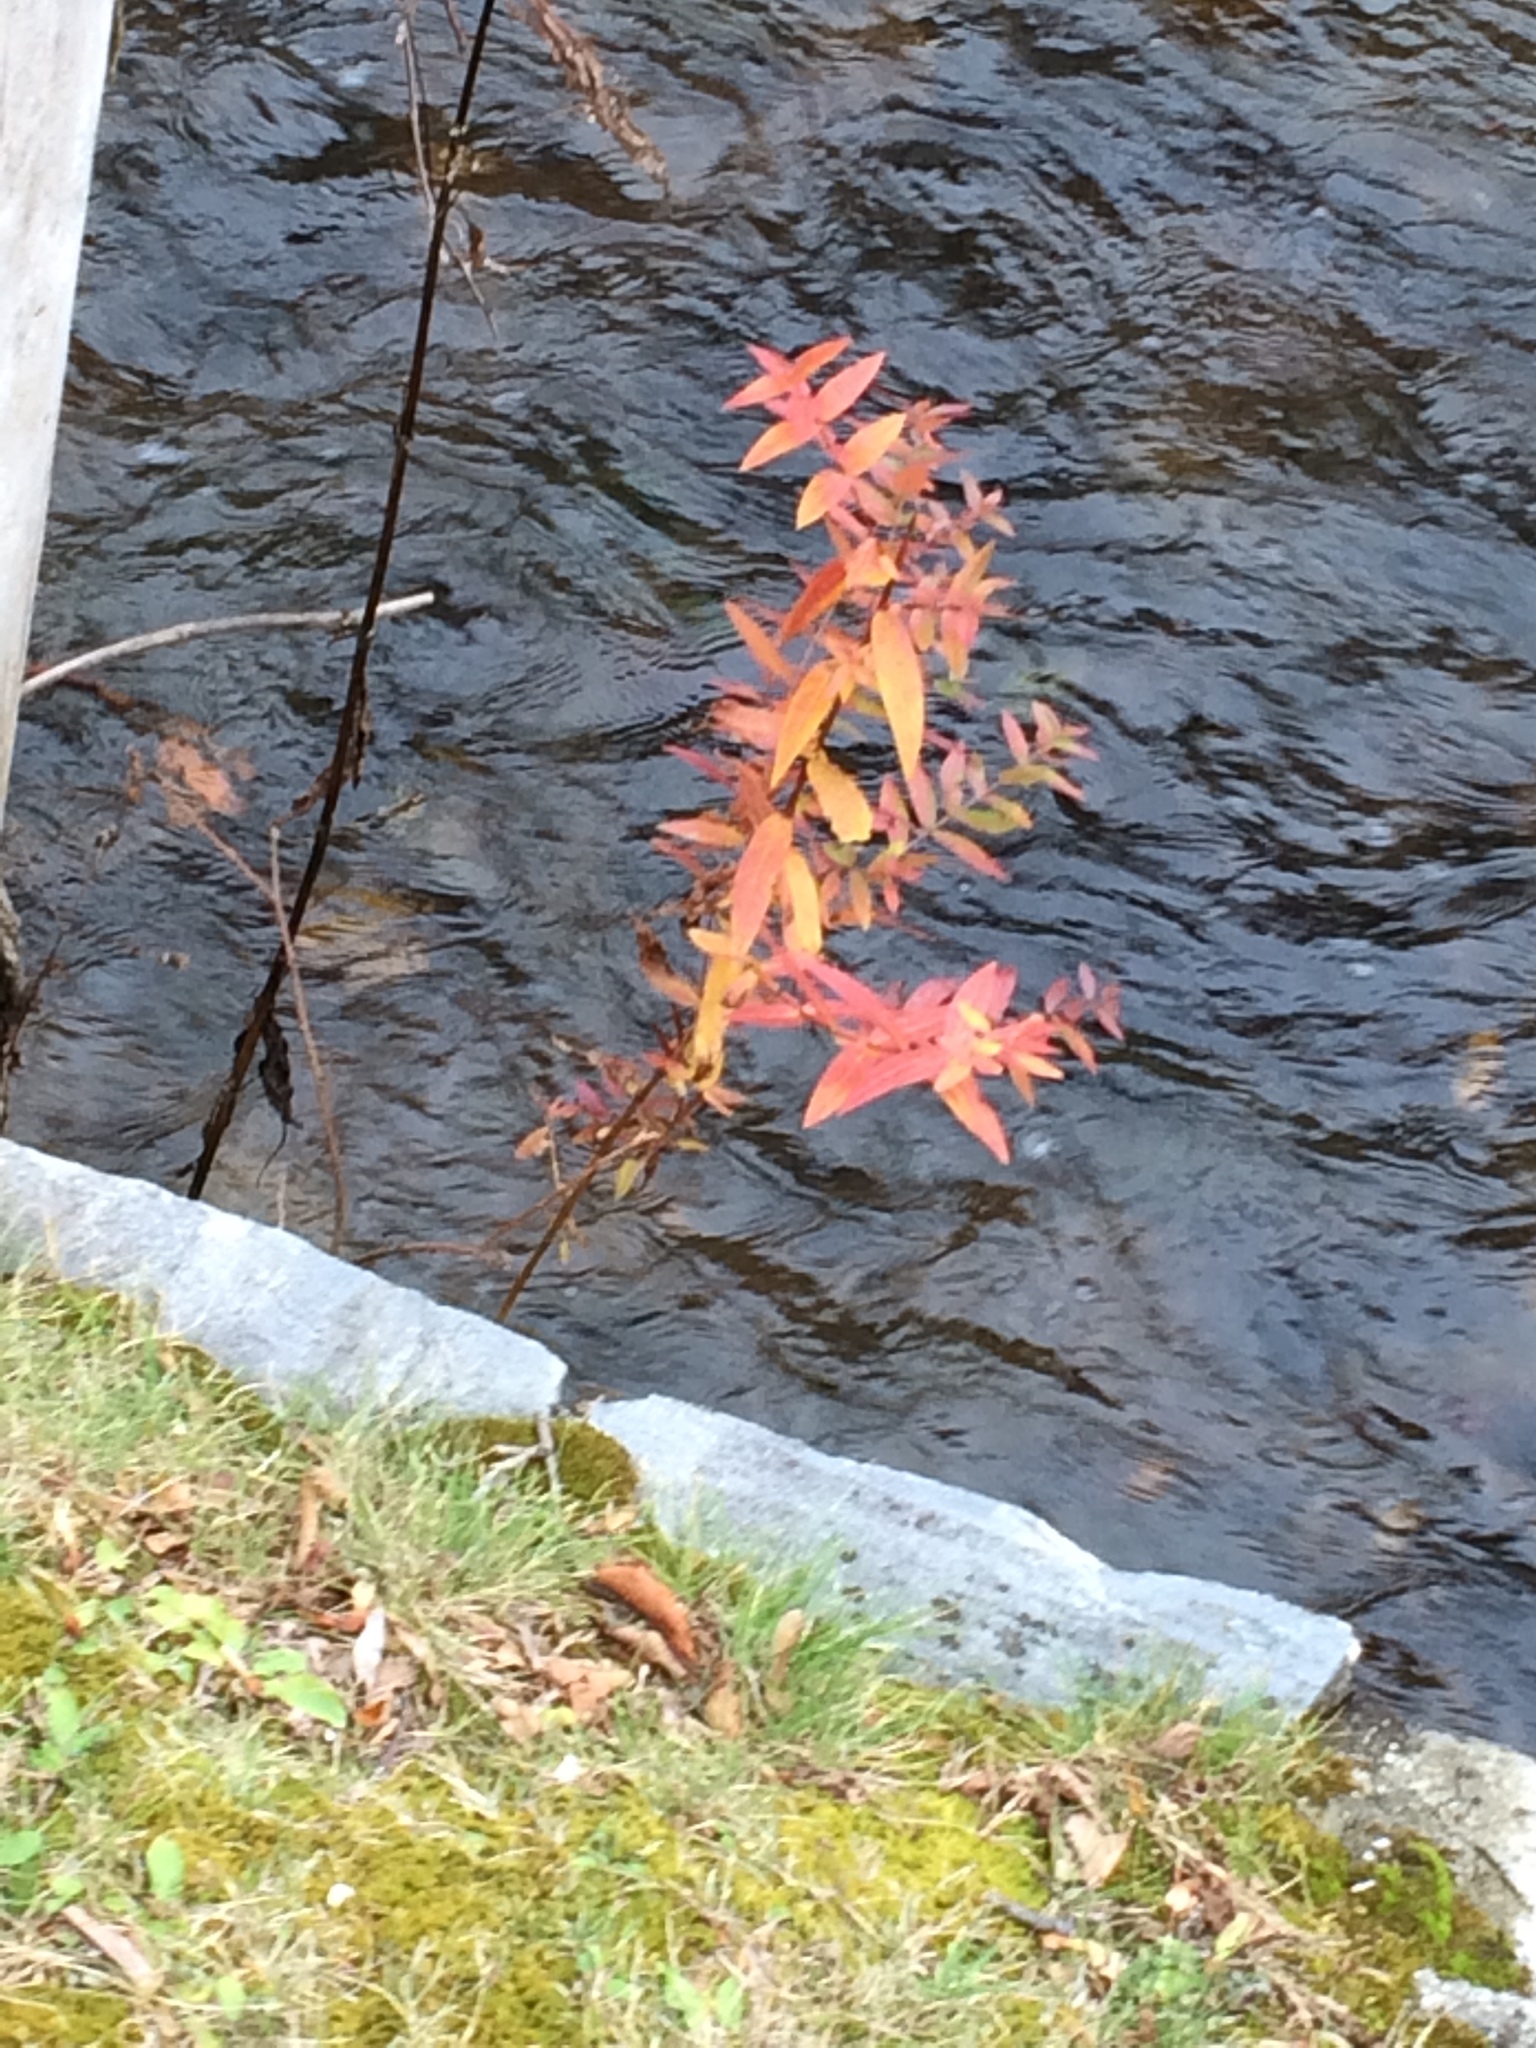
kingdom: Plantae
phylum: Tracheophyta
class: Magnoliopsida
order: Myrtales
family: Lythraceae
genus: Lythrum
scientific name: Lythrum salicaria
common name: Purple loosestrife
